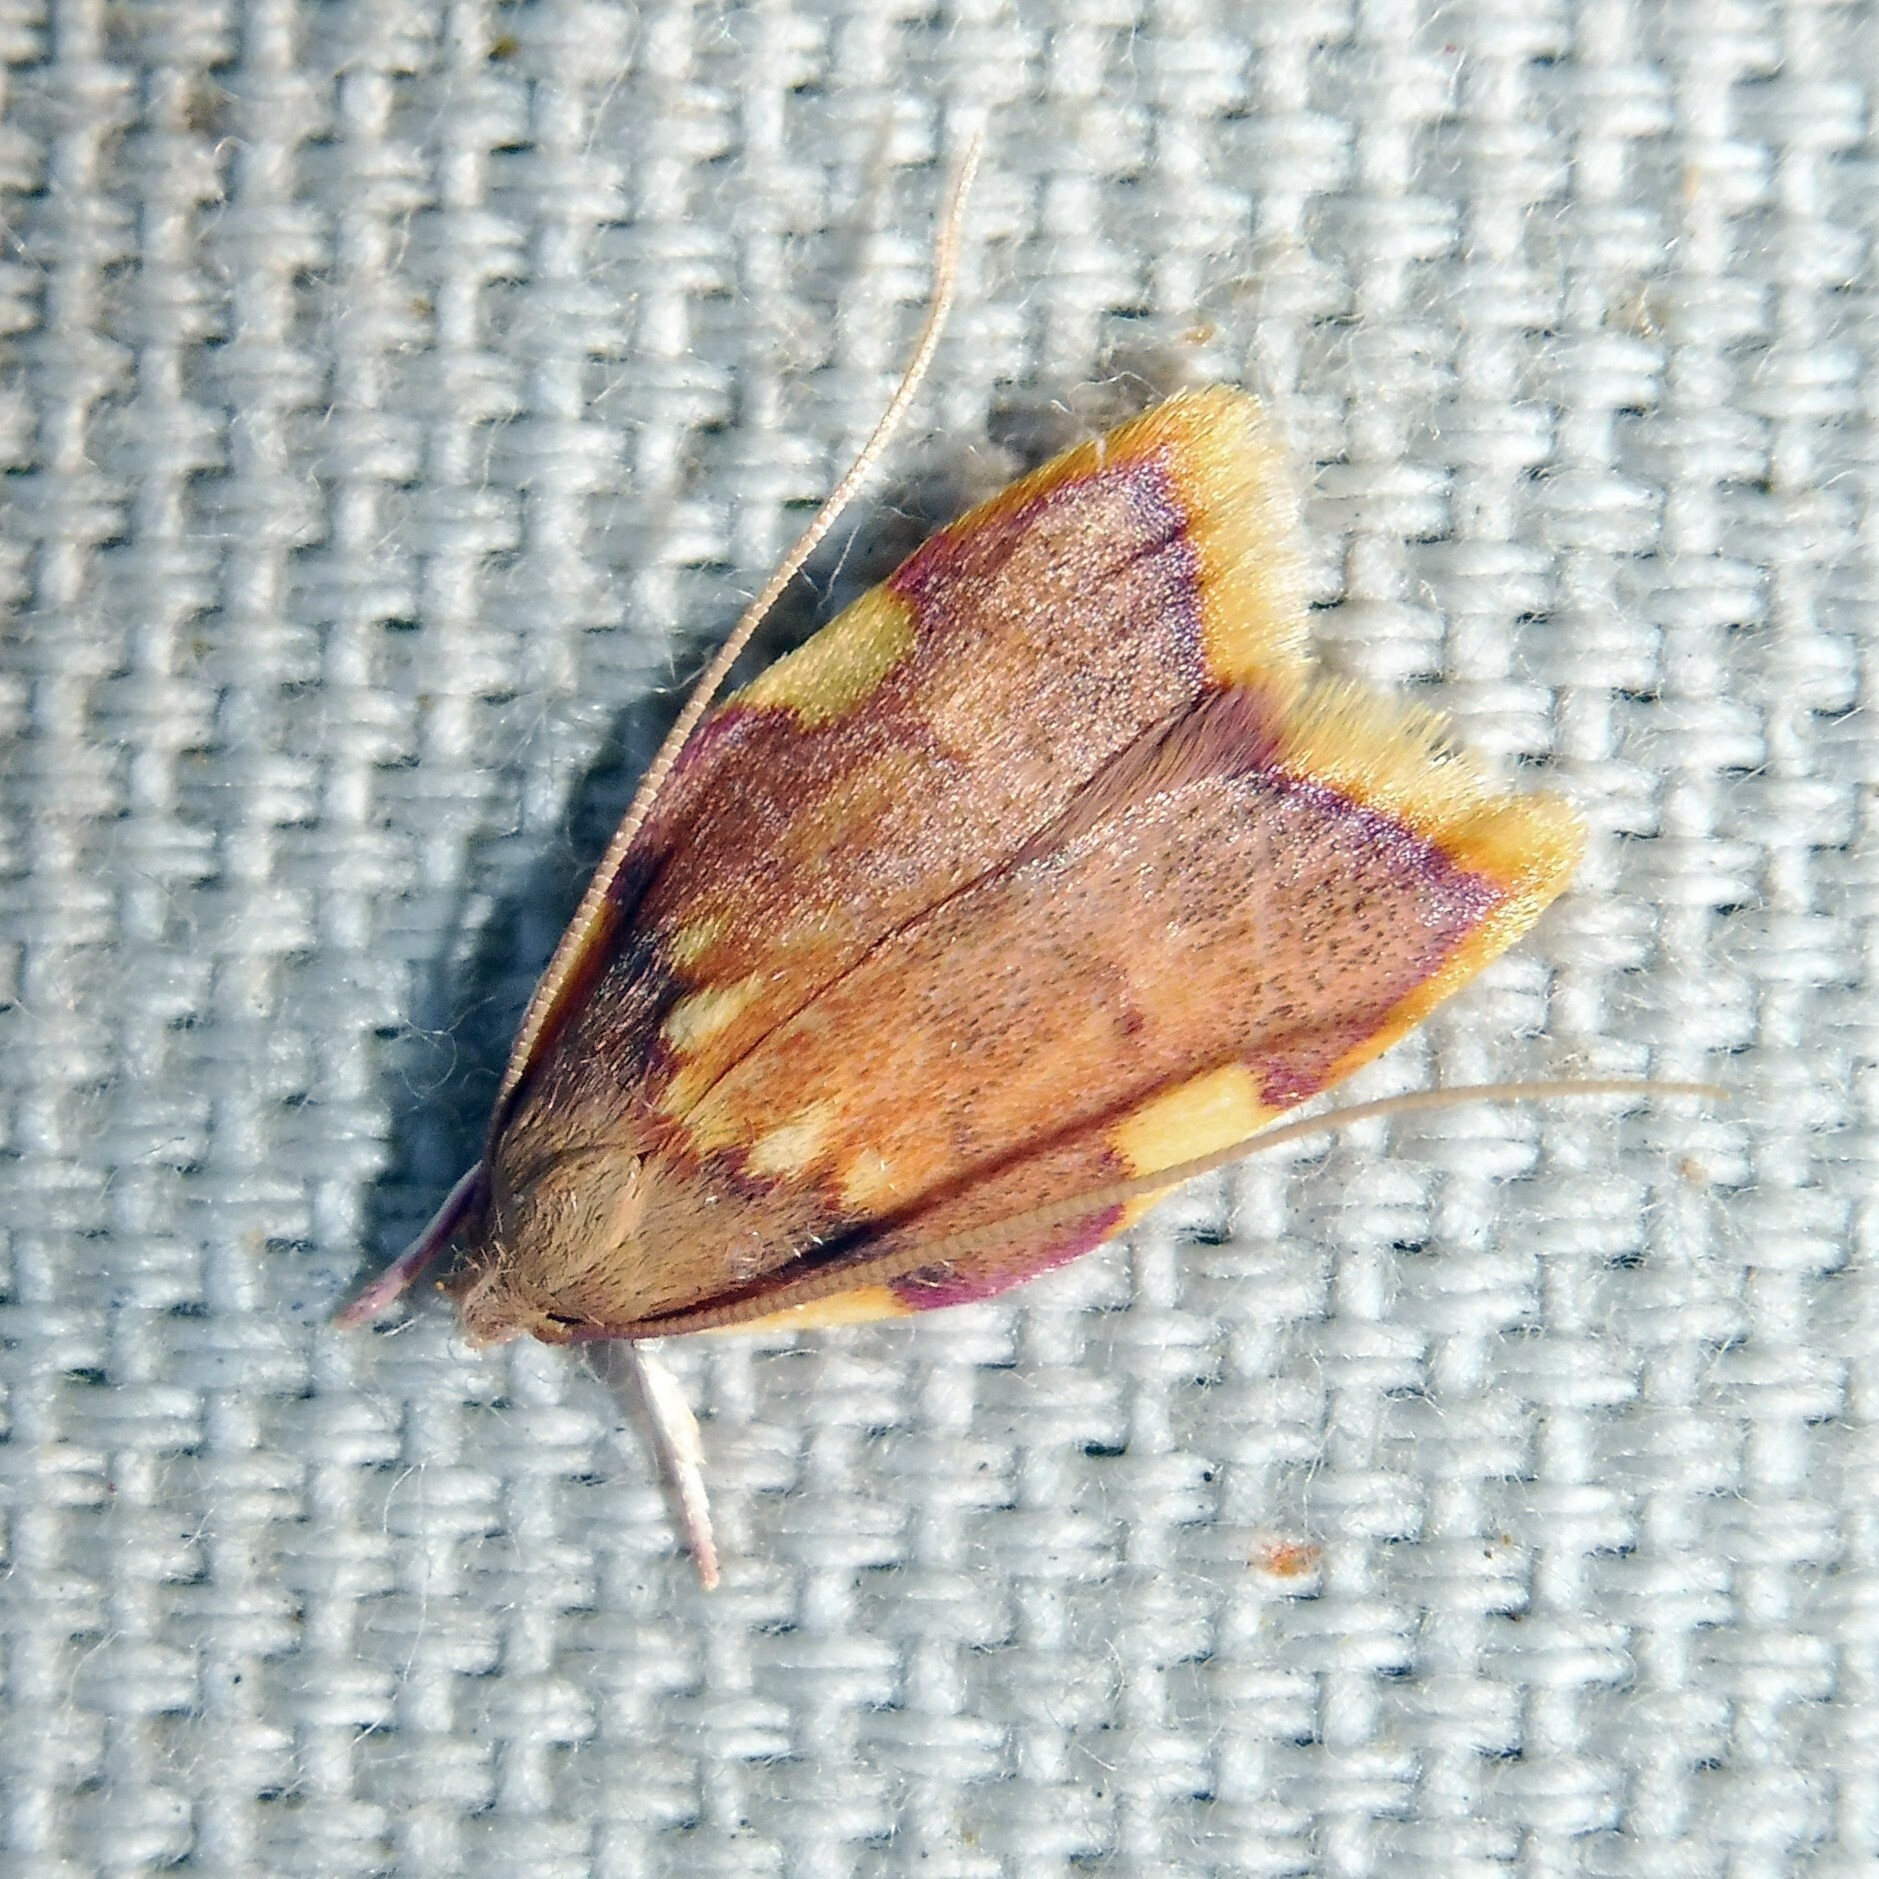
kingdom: Animalia
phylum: Arthropoda
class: Insecta
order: Lepidoptera
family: Peleopodidae
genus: Carcina
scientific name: Carcina quercana
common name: Moth
